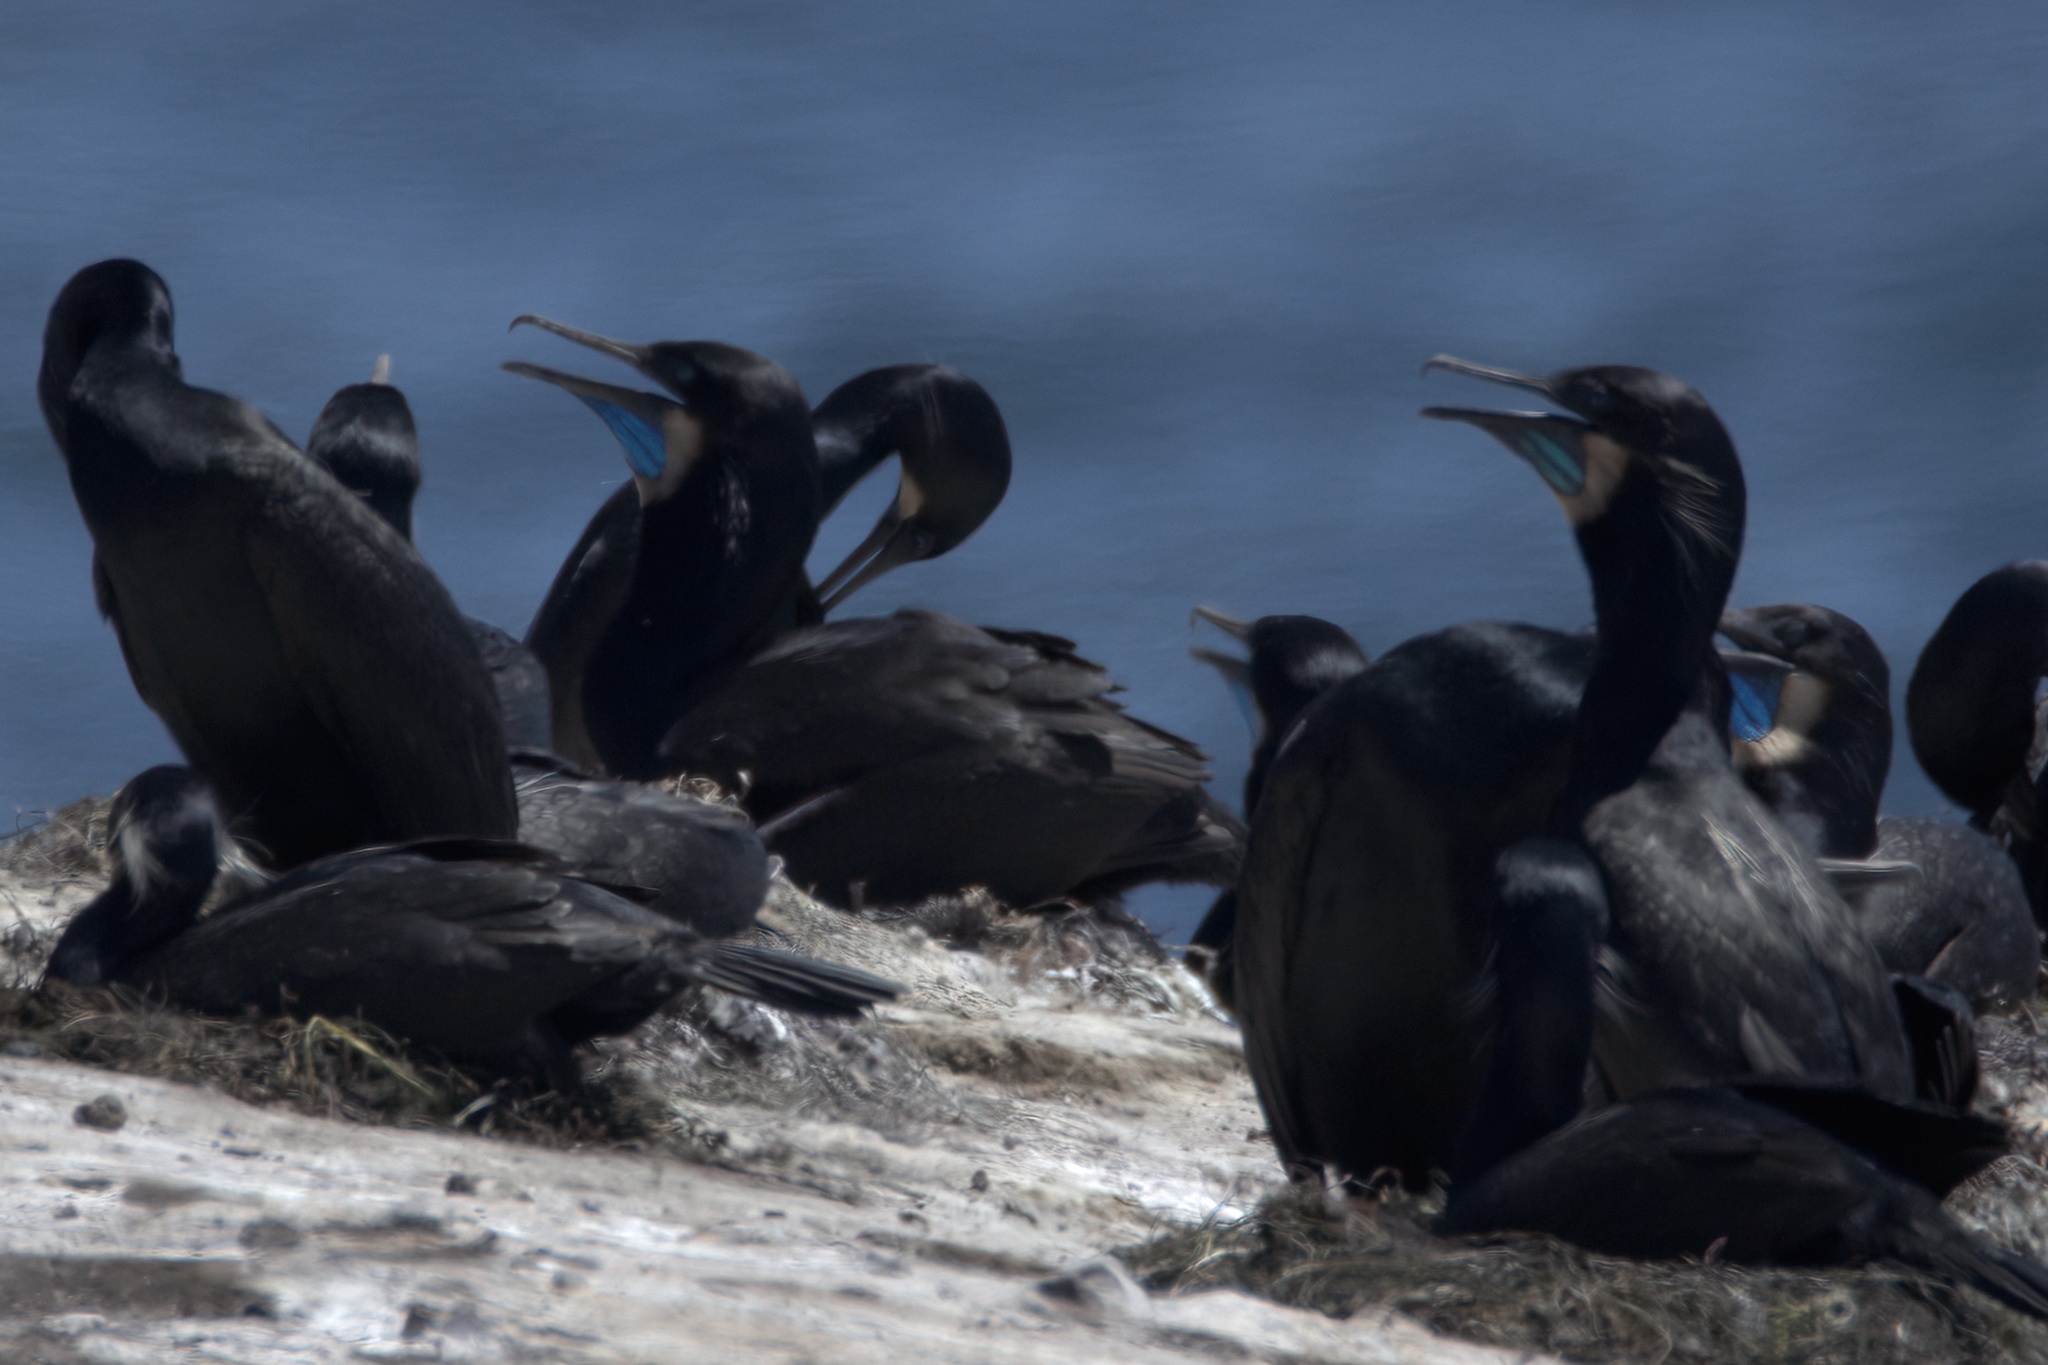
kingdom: Animalia
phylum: Chordata
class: Aves
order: Suliformes
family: Phalacrocoracidae
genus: Urile
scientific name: Urile penicillatus
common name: Brandt's cormorant
